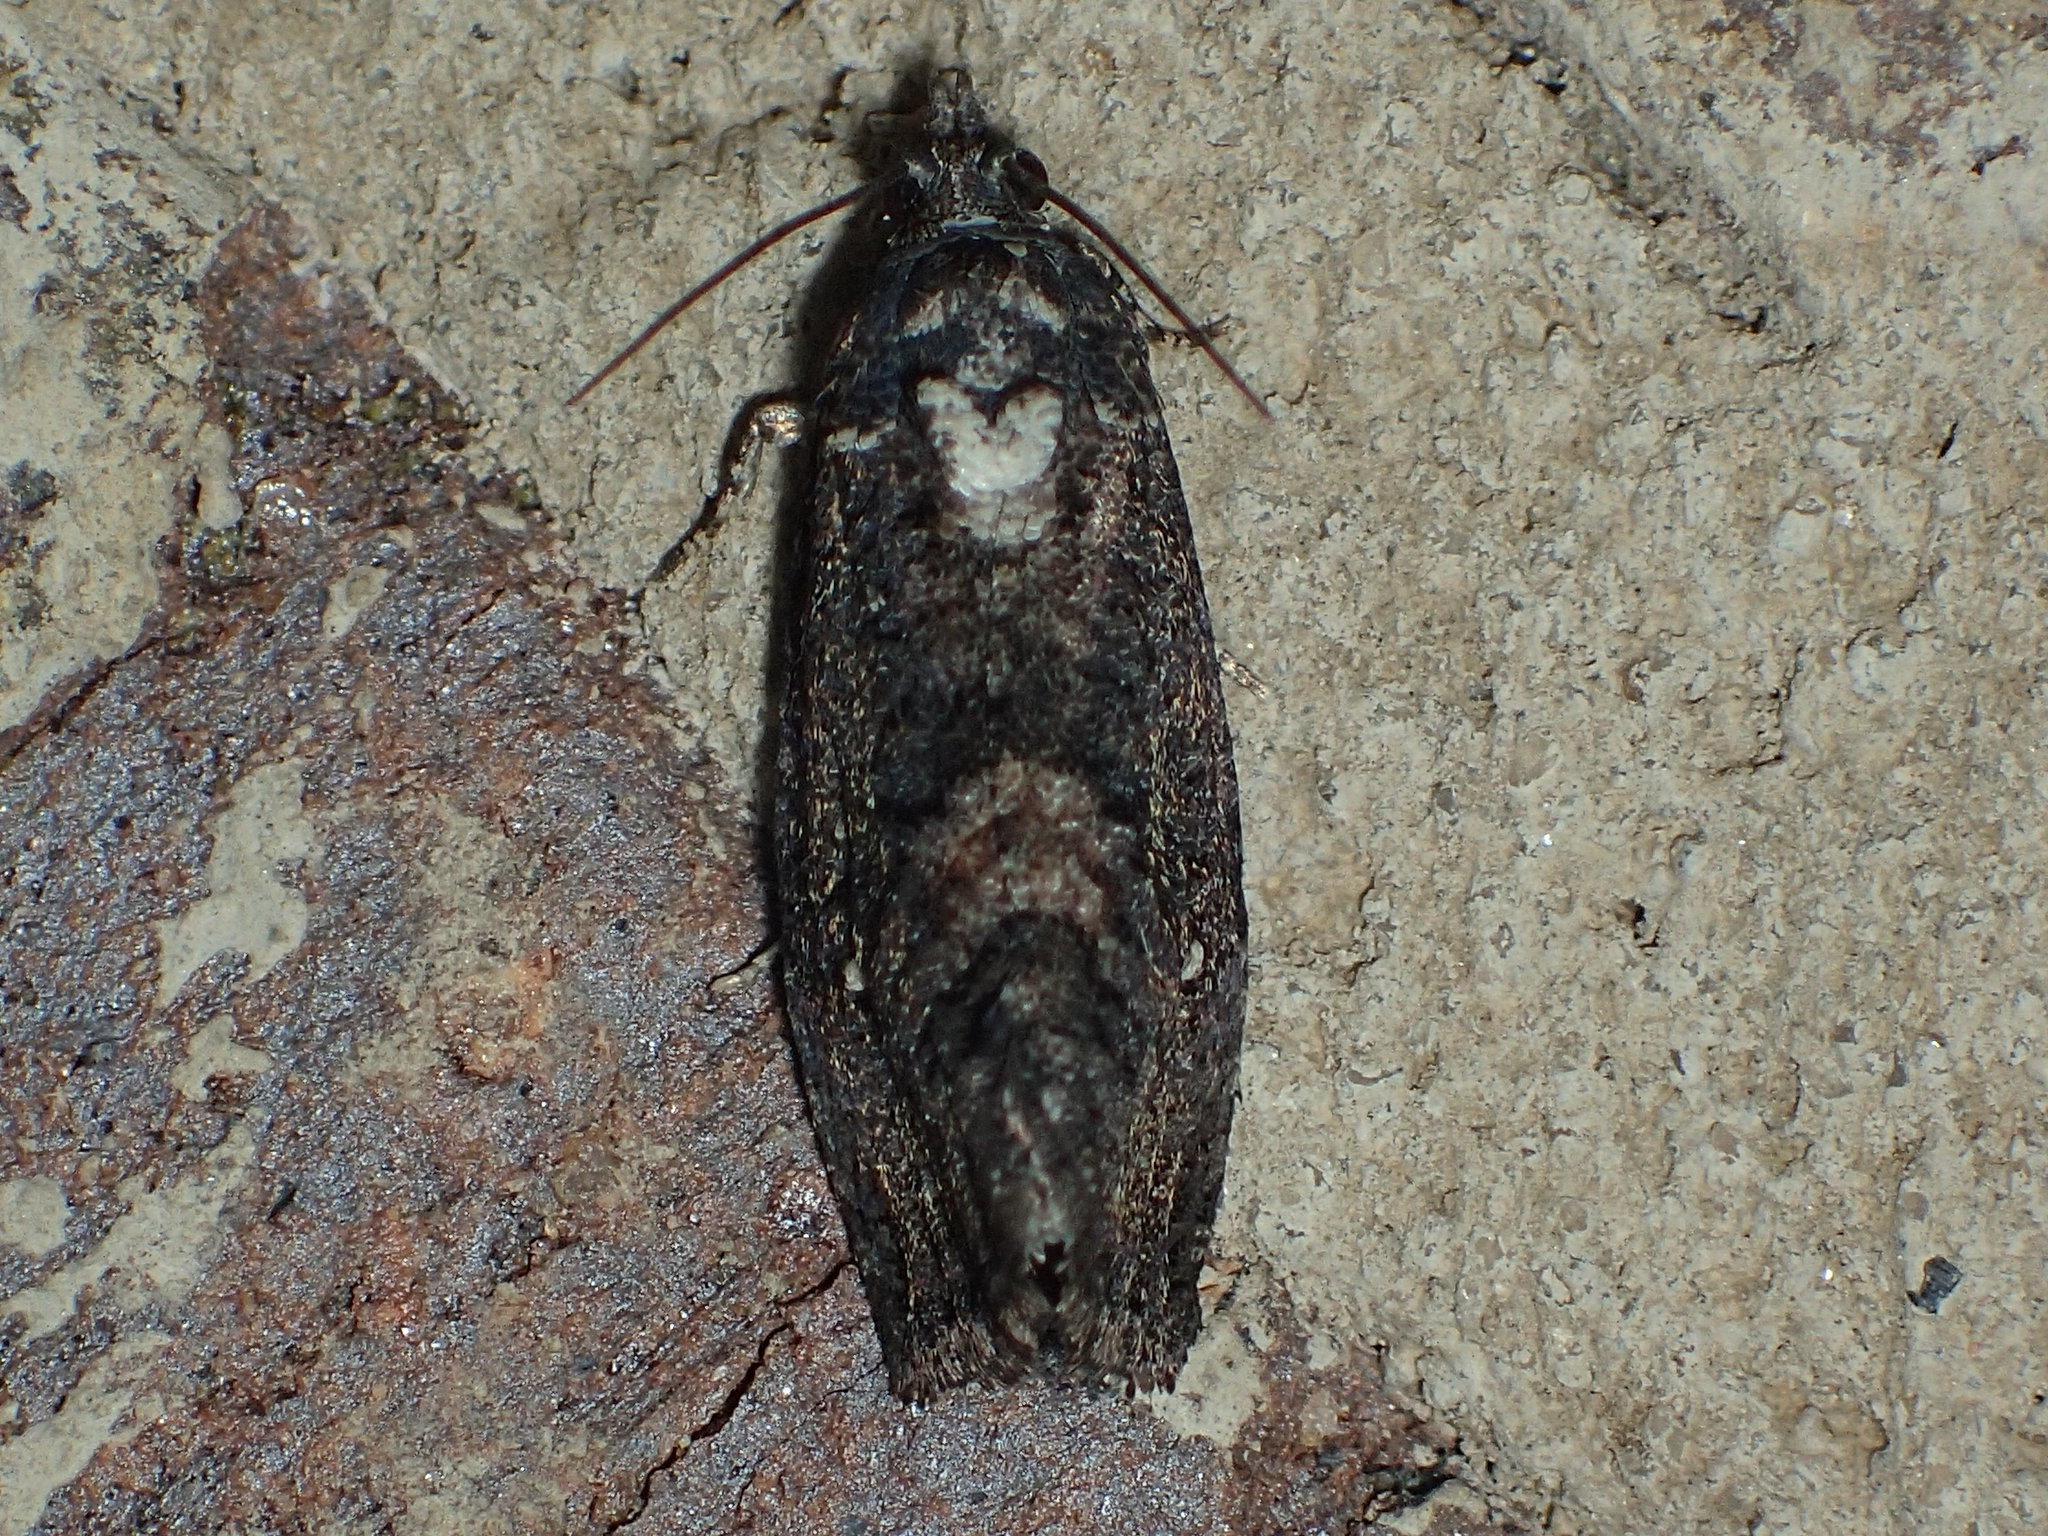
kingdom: Animalia
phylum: Arthropoda
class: Insecta
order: Lepidoptera
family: Tortricidae
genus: Gymnandrosoma
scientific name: Gymnandrosoma punctidiscanum
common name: Dotted ecdytolopha moth
